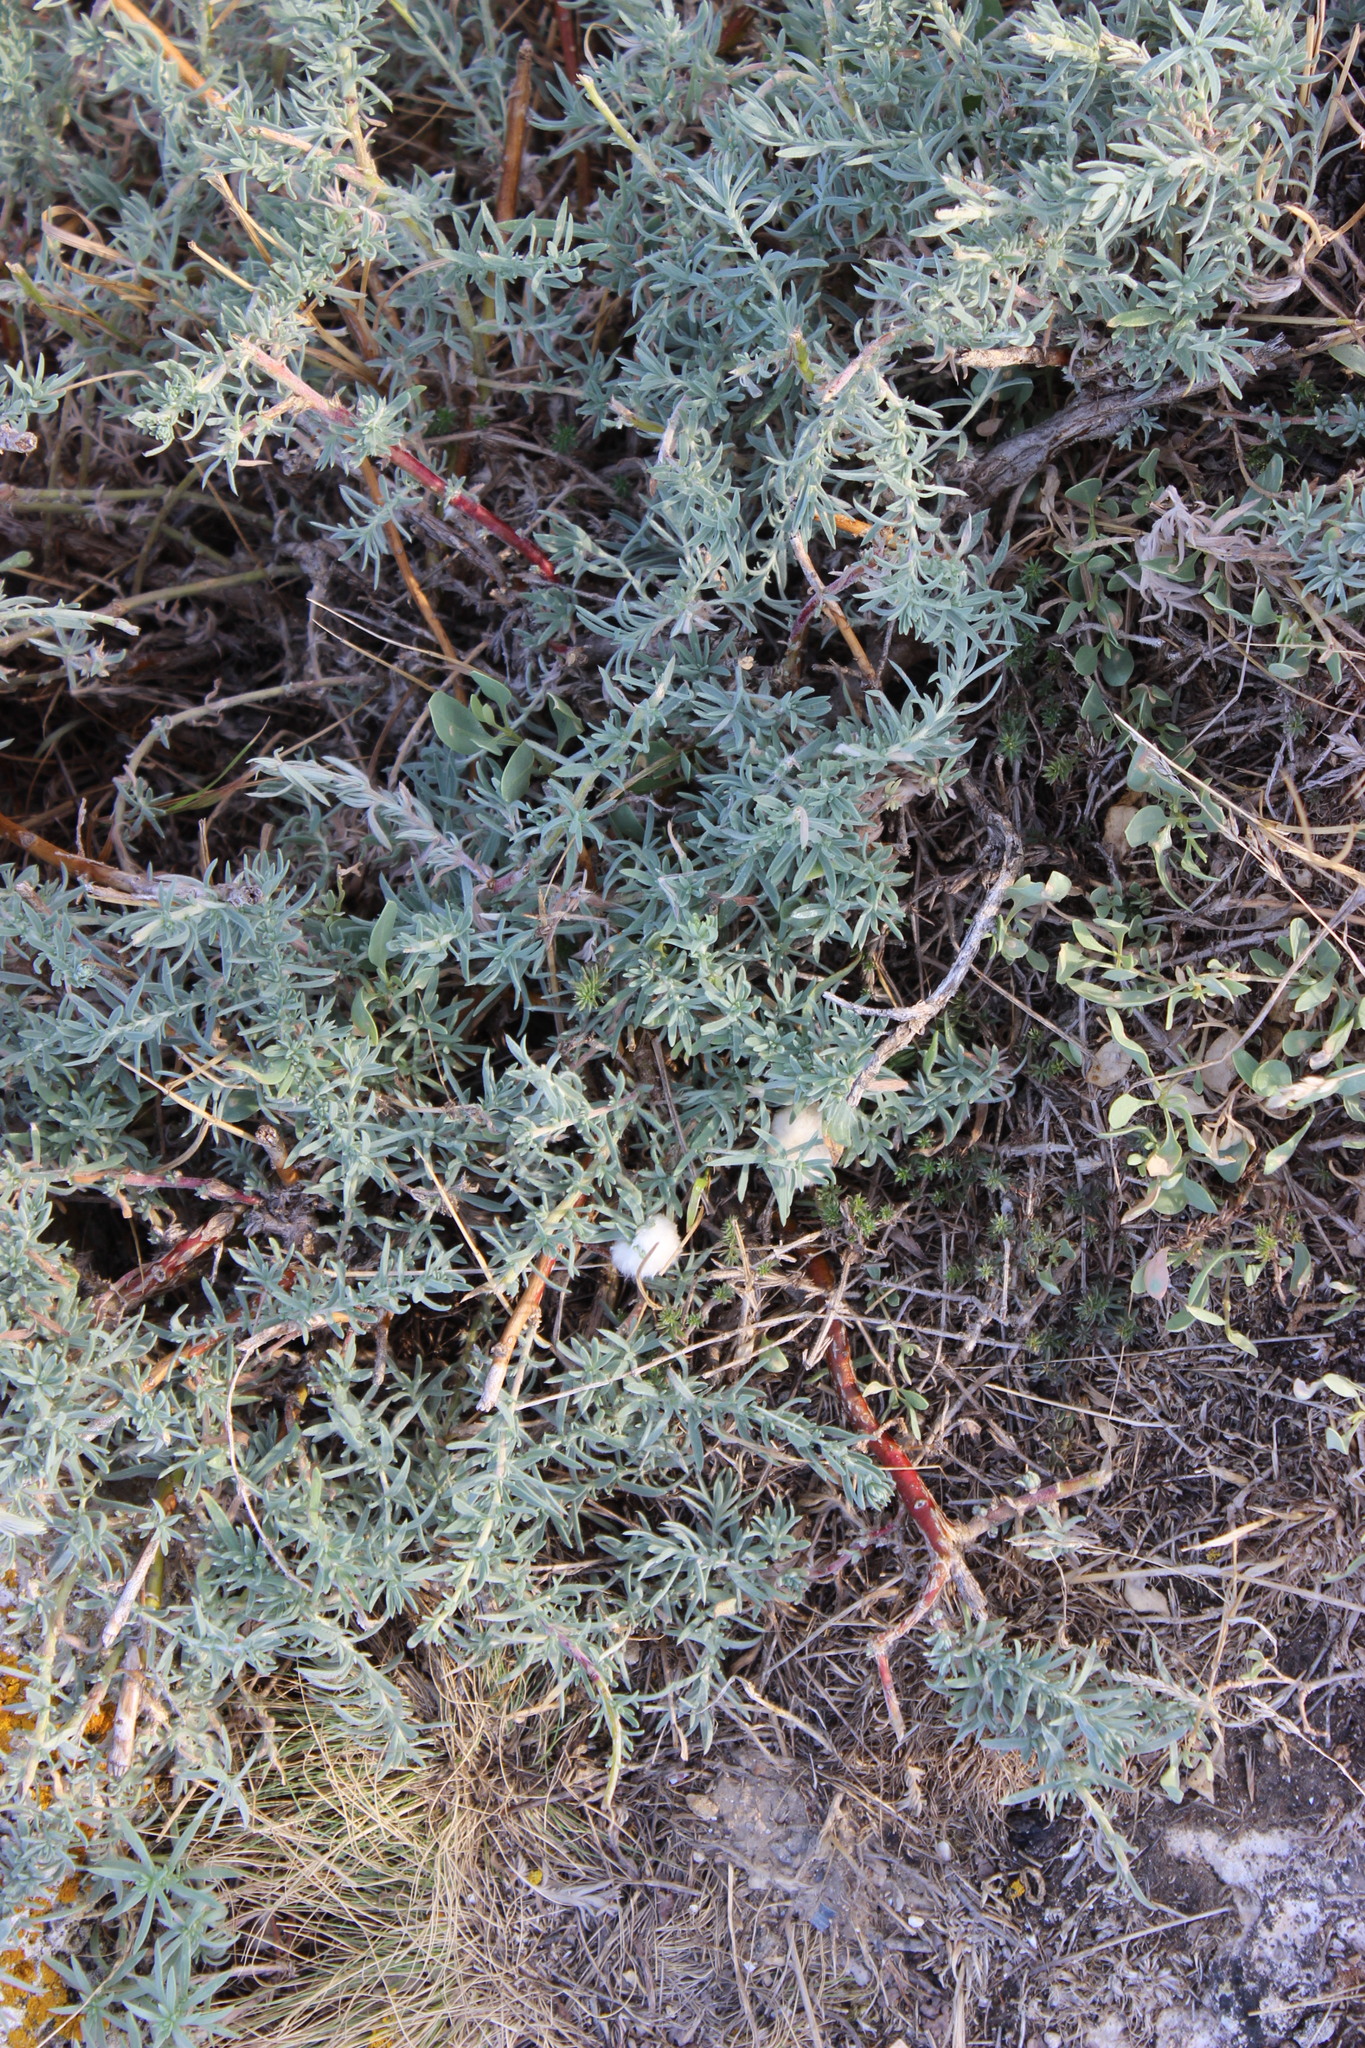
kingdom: Plantae
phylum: Tracheophyta
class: Magnoliopsida
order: Caryophyllales
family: Amaranthaceae
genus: Bassia
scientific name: Bassia prostrata
